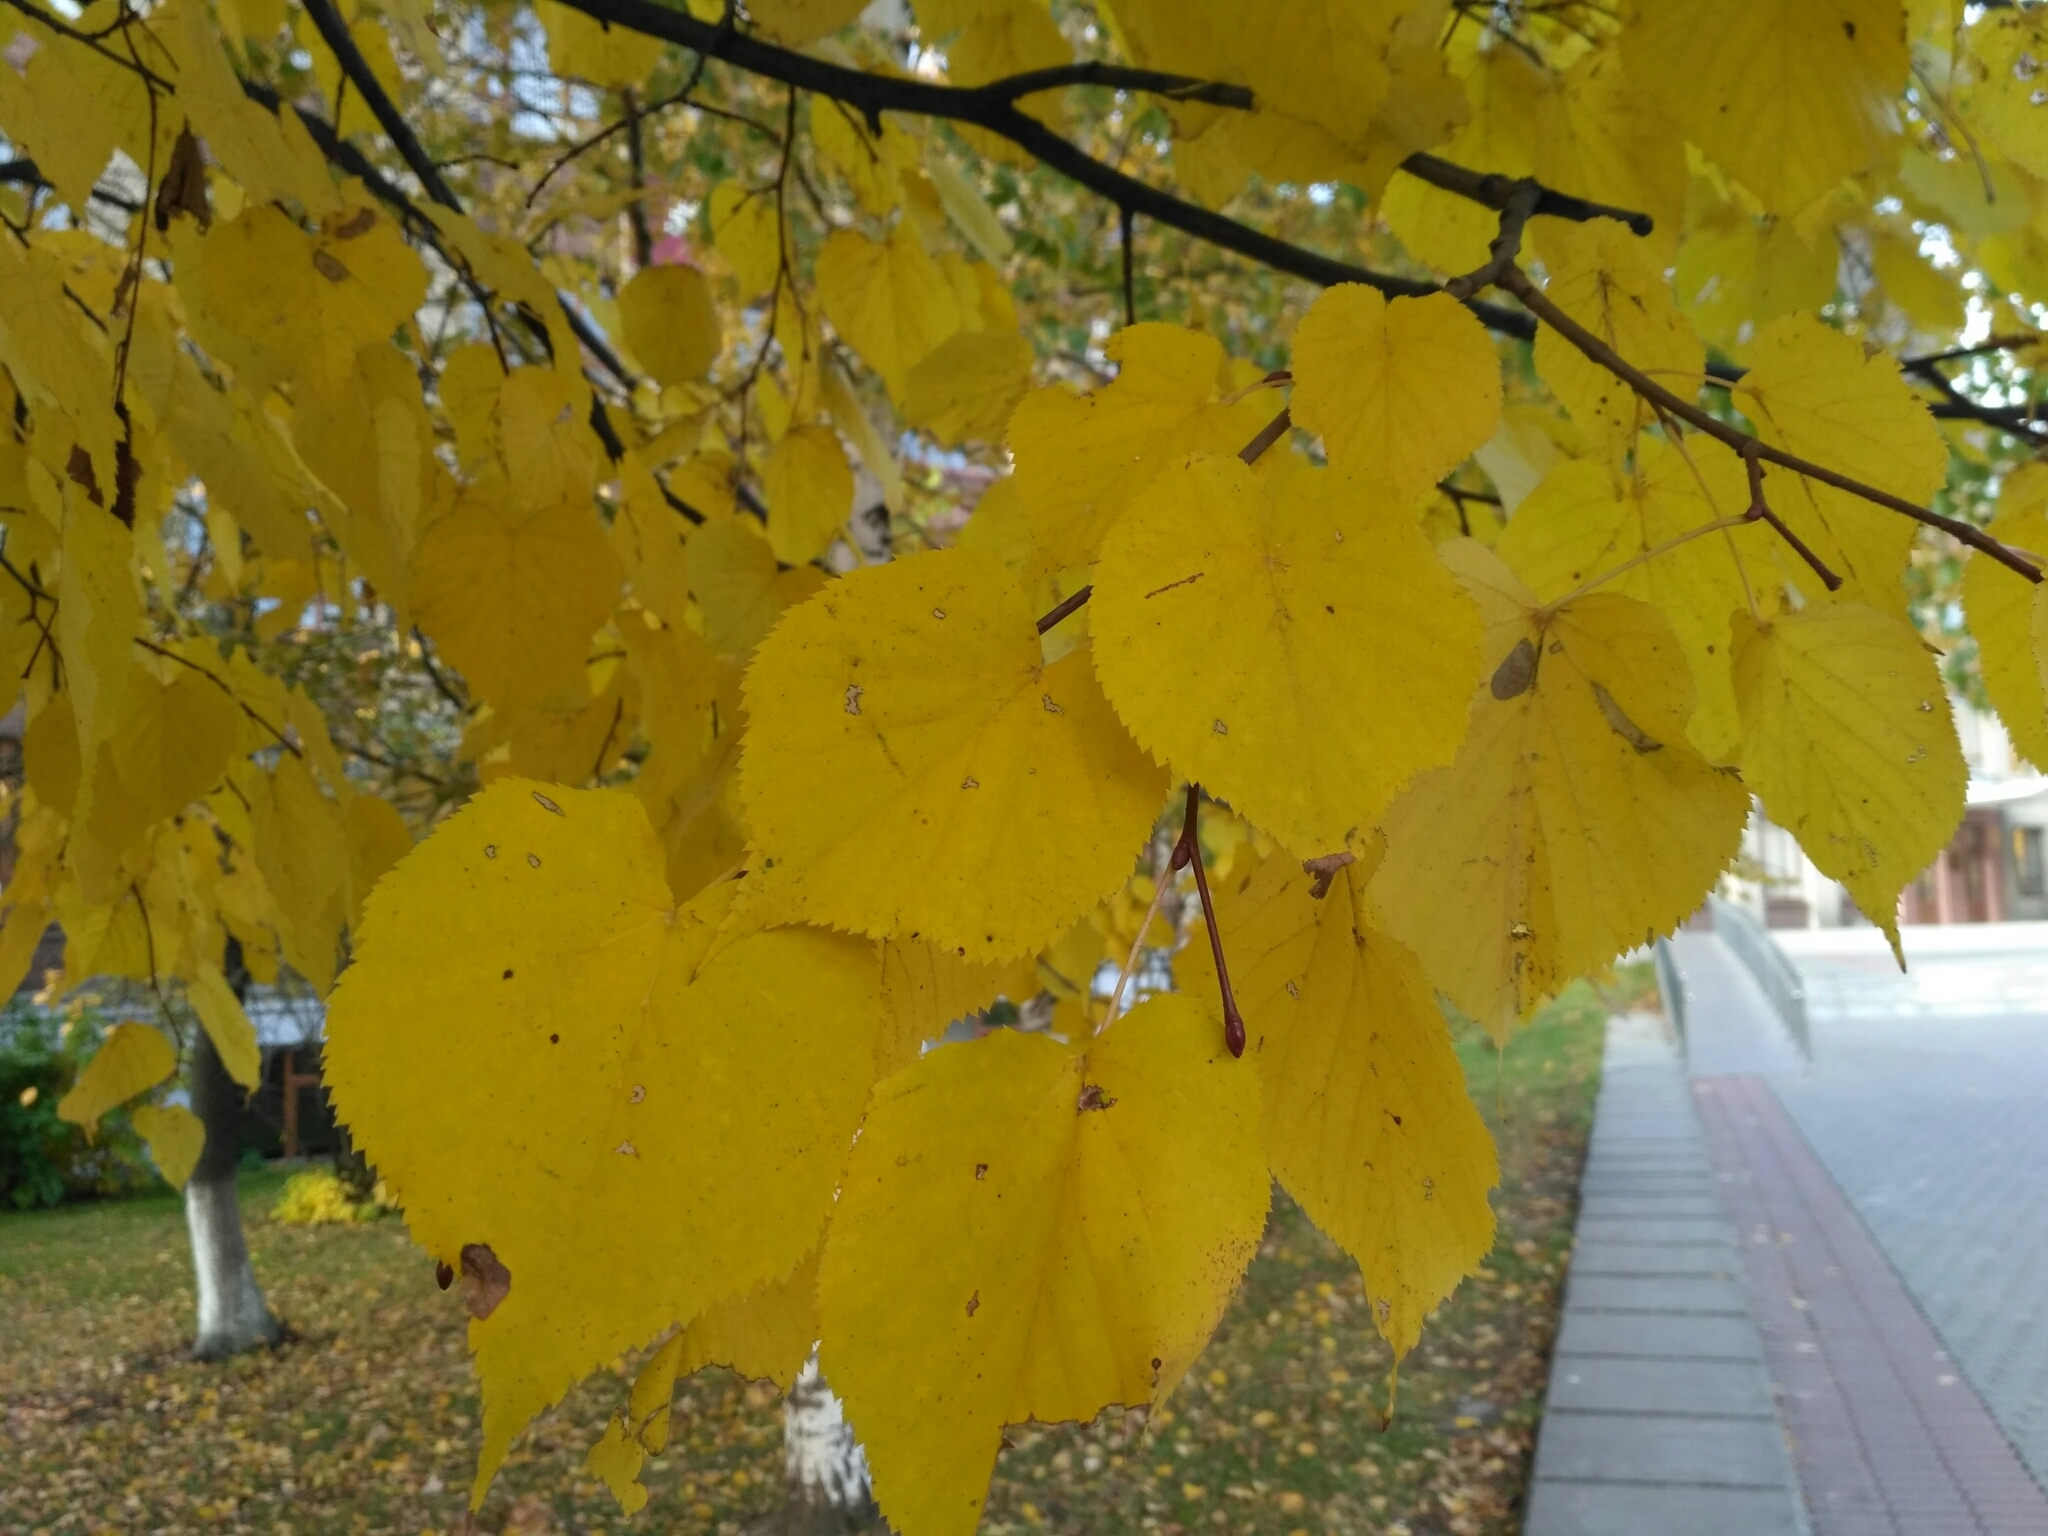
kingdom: Plantae
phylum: Tracheophyta
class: Magnoliopsida
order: Malvales
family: Malvaceae
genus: Tilia
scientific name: Tilia cordata
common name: Small-leaved lime
